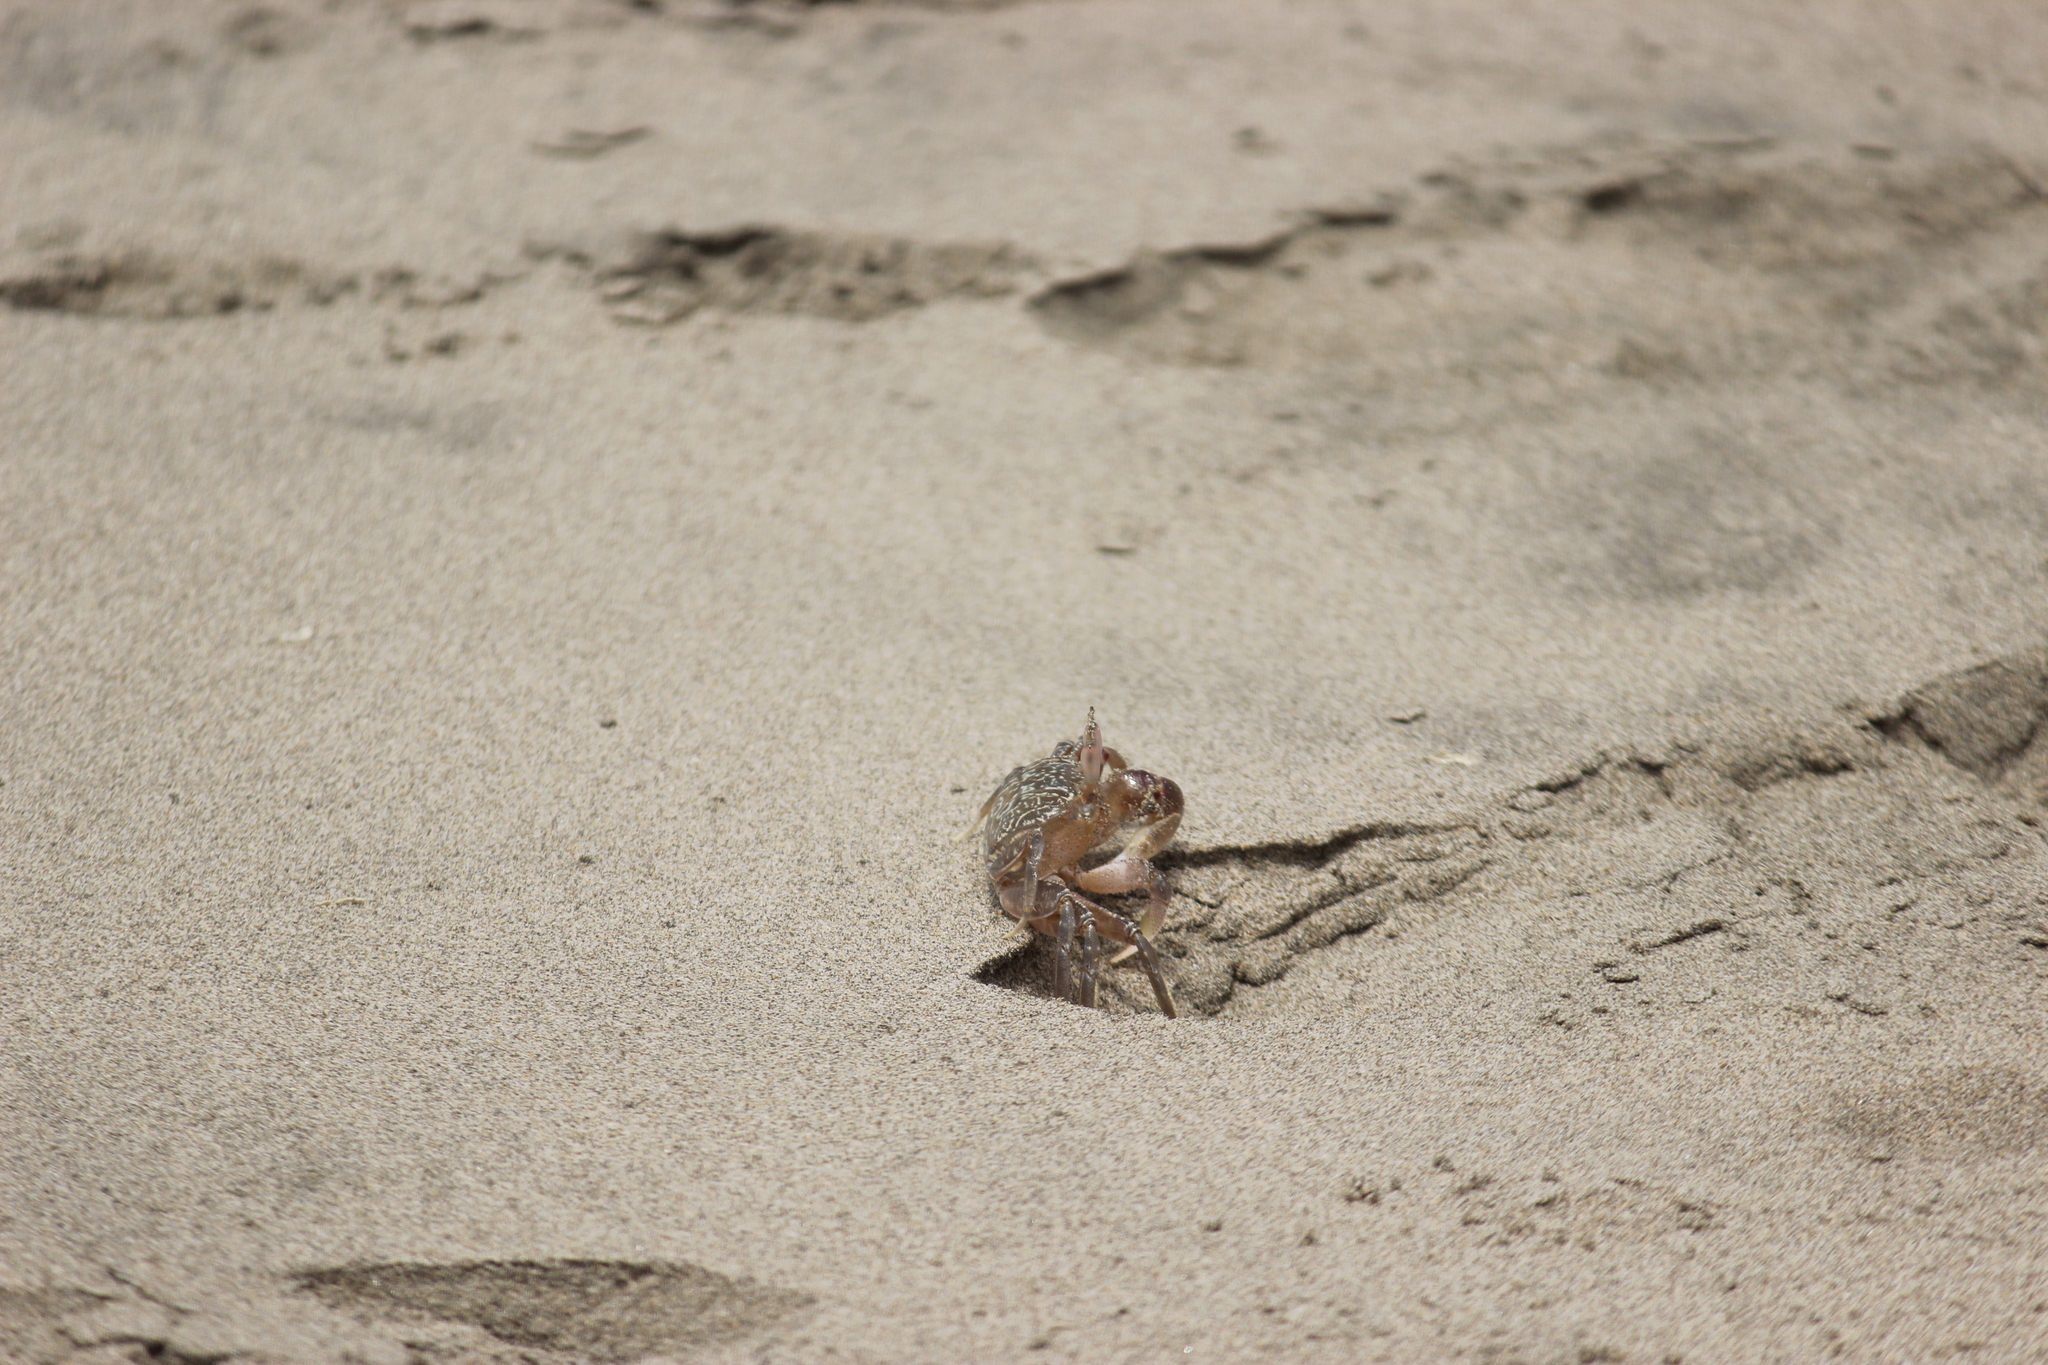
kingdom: Animalia
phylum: Arthropoda
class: Malacostraca
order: Decapoda
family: Ocypodidae
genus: Ocypode
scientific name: Ocypode gaudichaudii
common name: Pacific ghost crab
